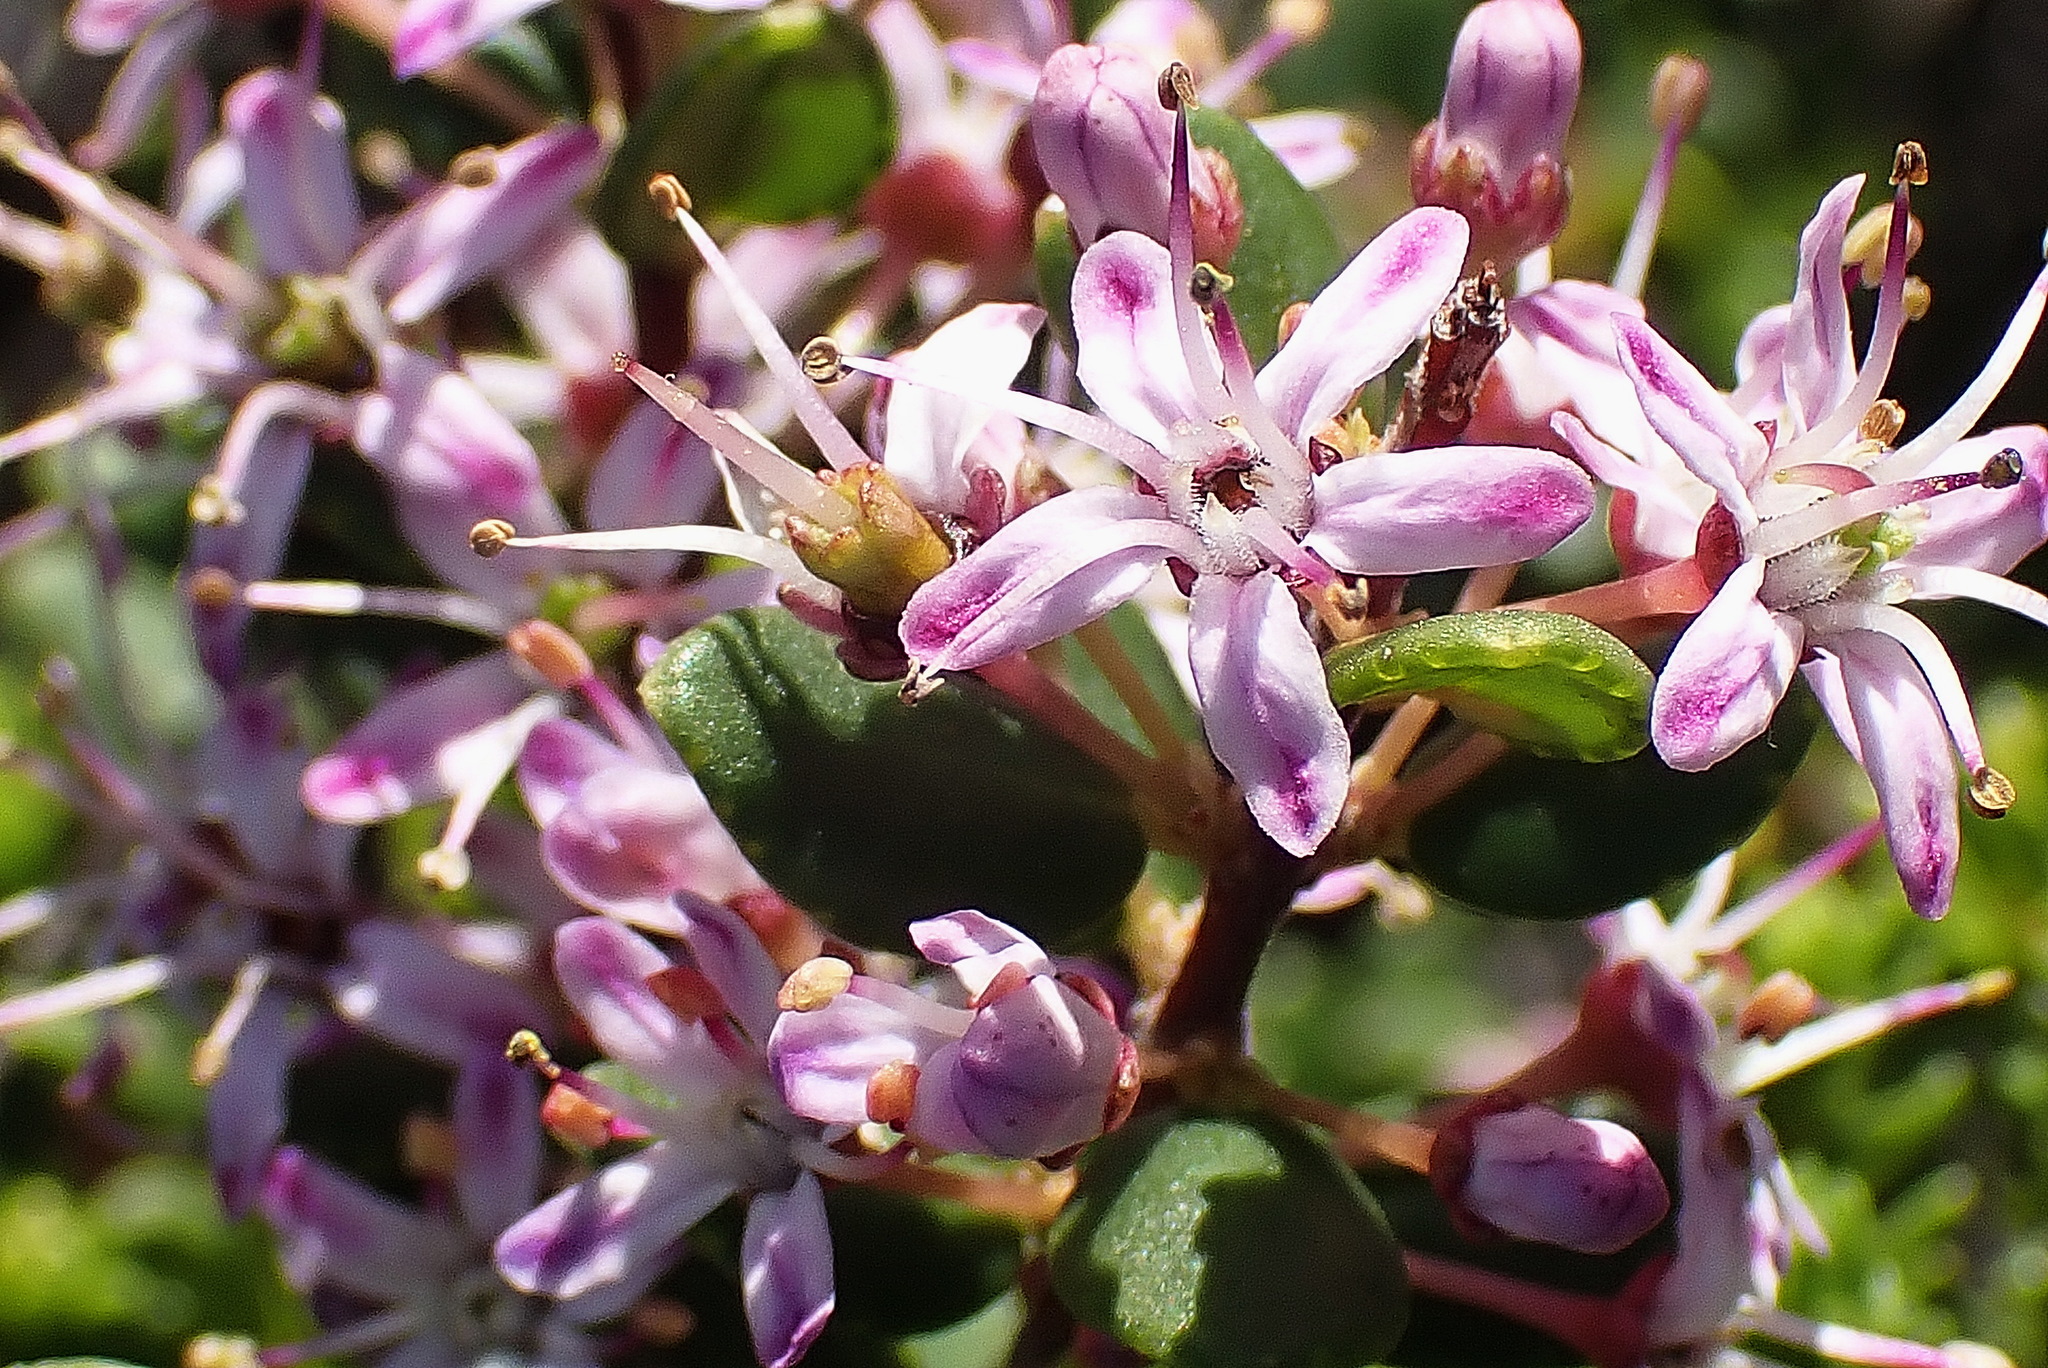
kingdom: Plantae
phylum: Tracheophyta
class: Magnoliopsida
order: Sapindales
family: Rutaceae
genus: Agathosma
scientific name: Agathosma ovata
